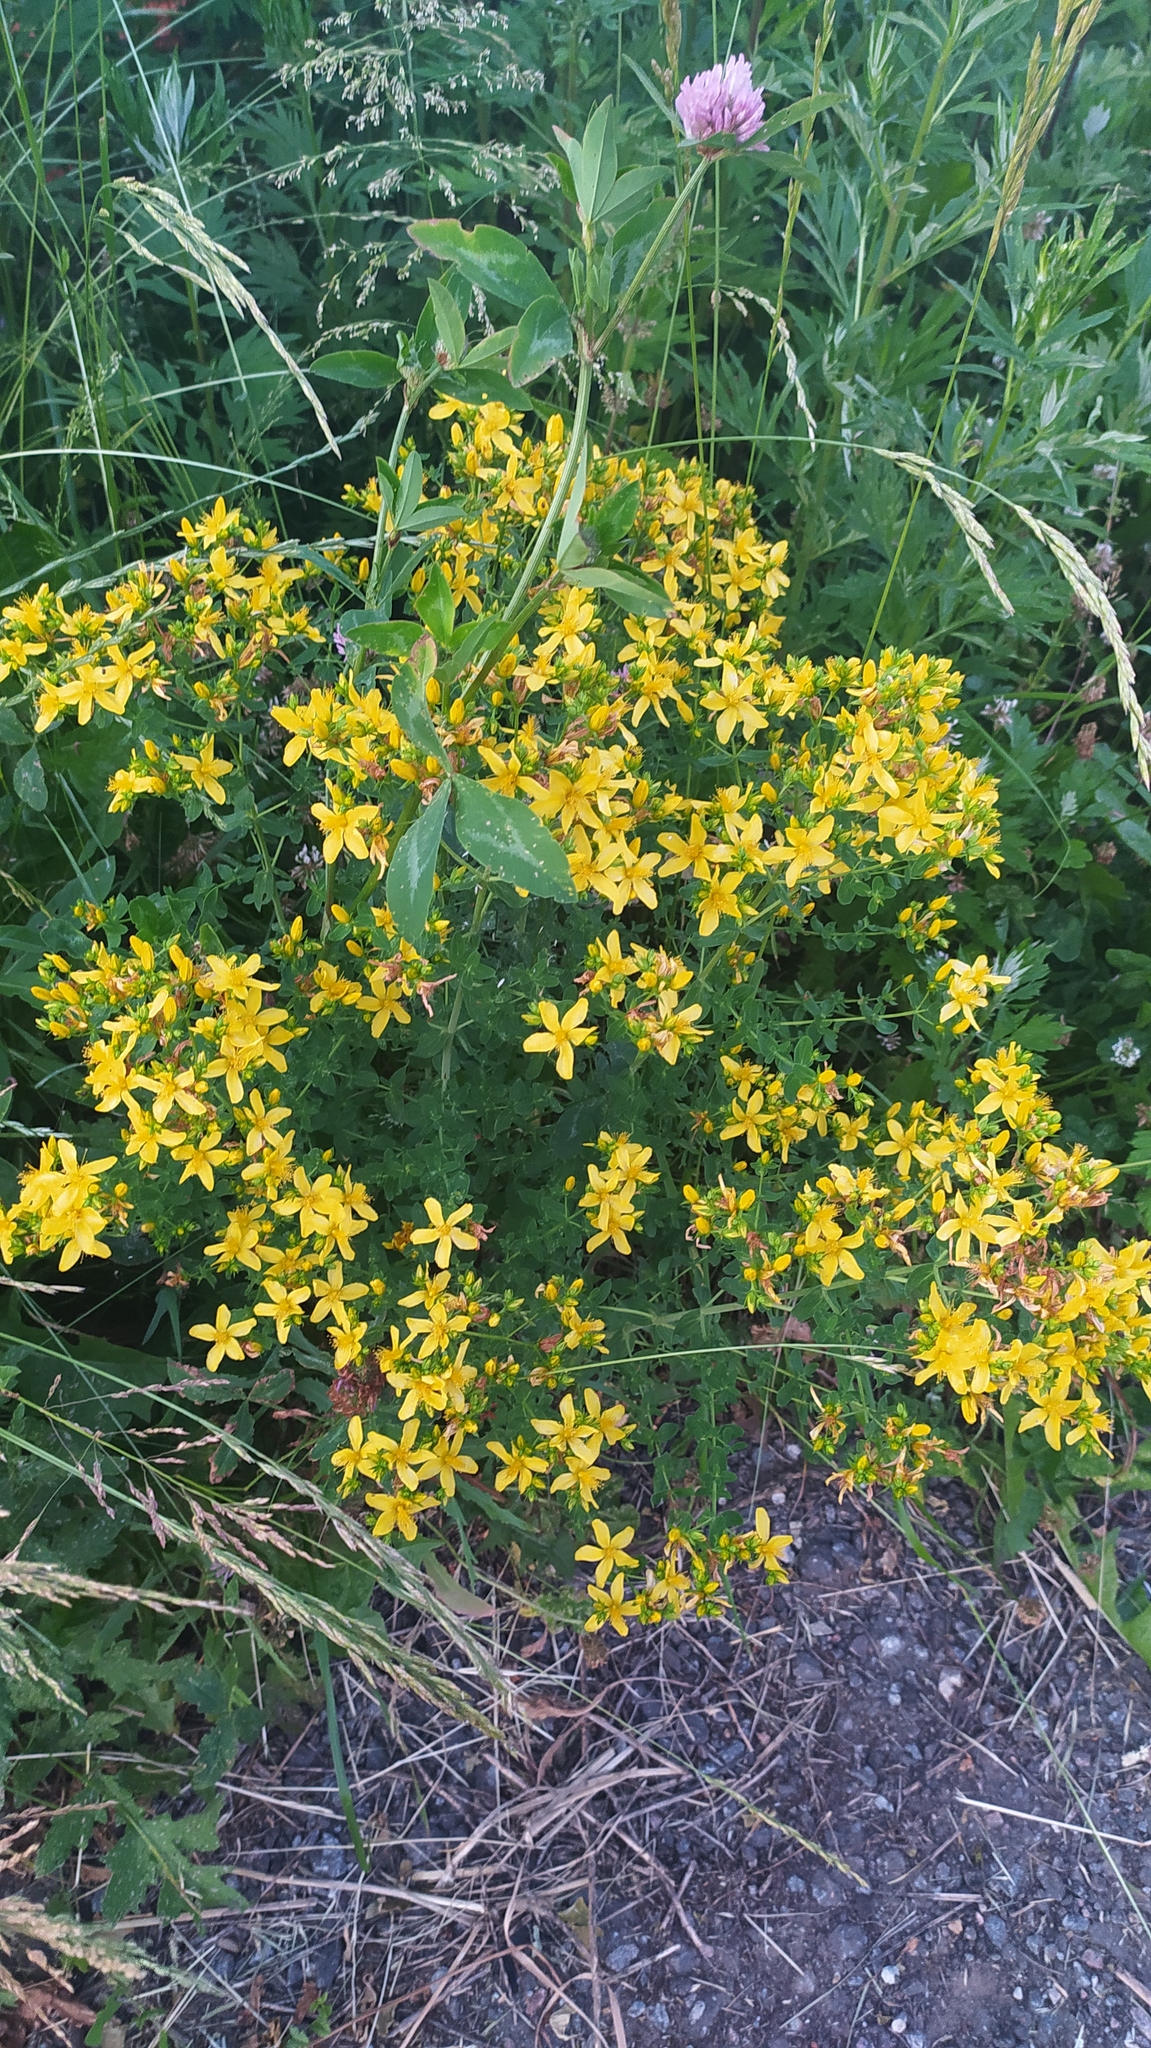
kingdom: Plantae
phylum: Tracheophyta
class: Magnoliopsida
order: Malpighiales
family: Hypericaceae
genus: Hypericum
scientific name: Hypericum perforatum
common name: Common st. johnswort
